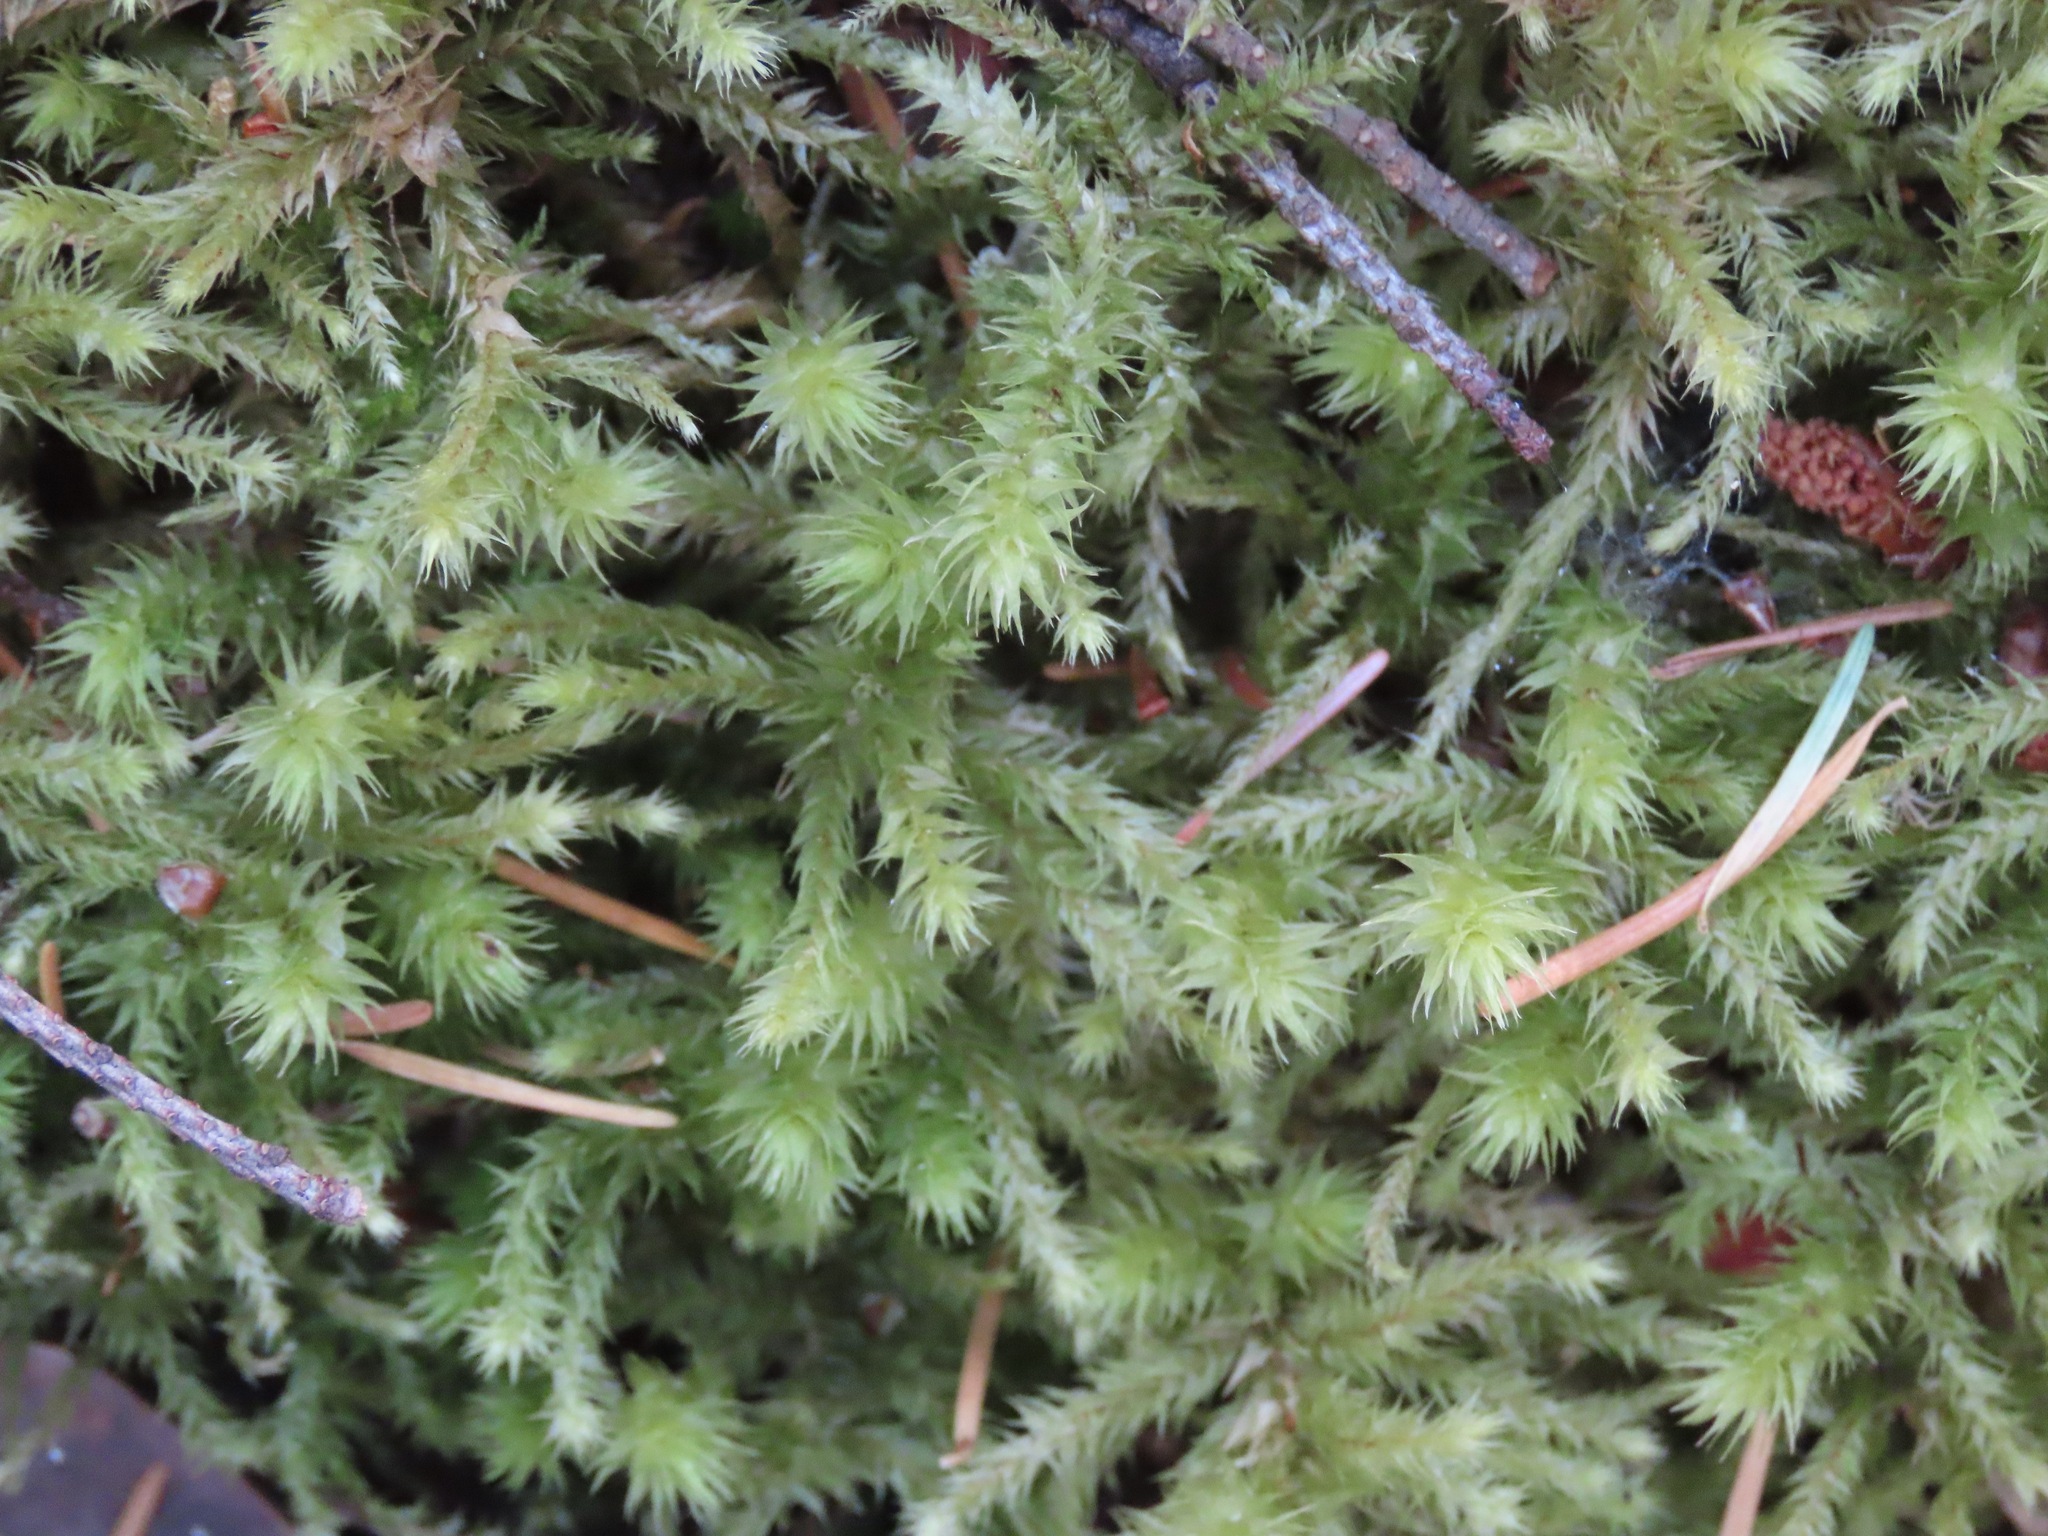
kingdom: Plantae
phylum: Bryophyta
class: Bryopsida
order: Hypnales
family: Hylocomiaceae
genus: Hylocomiadelphus
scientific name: Hylocomiadelphus triquetrus
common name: Rough goose neck moss
